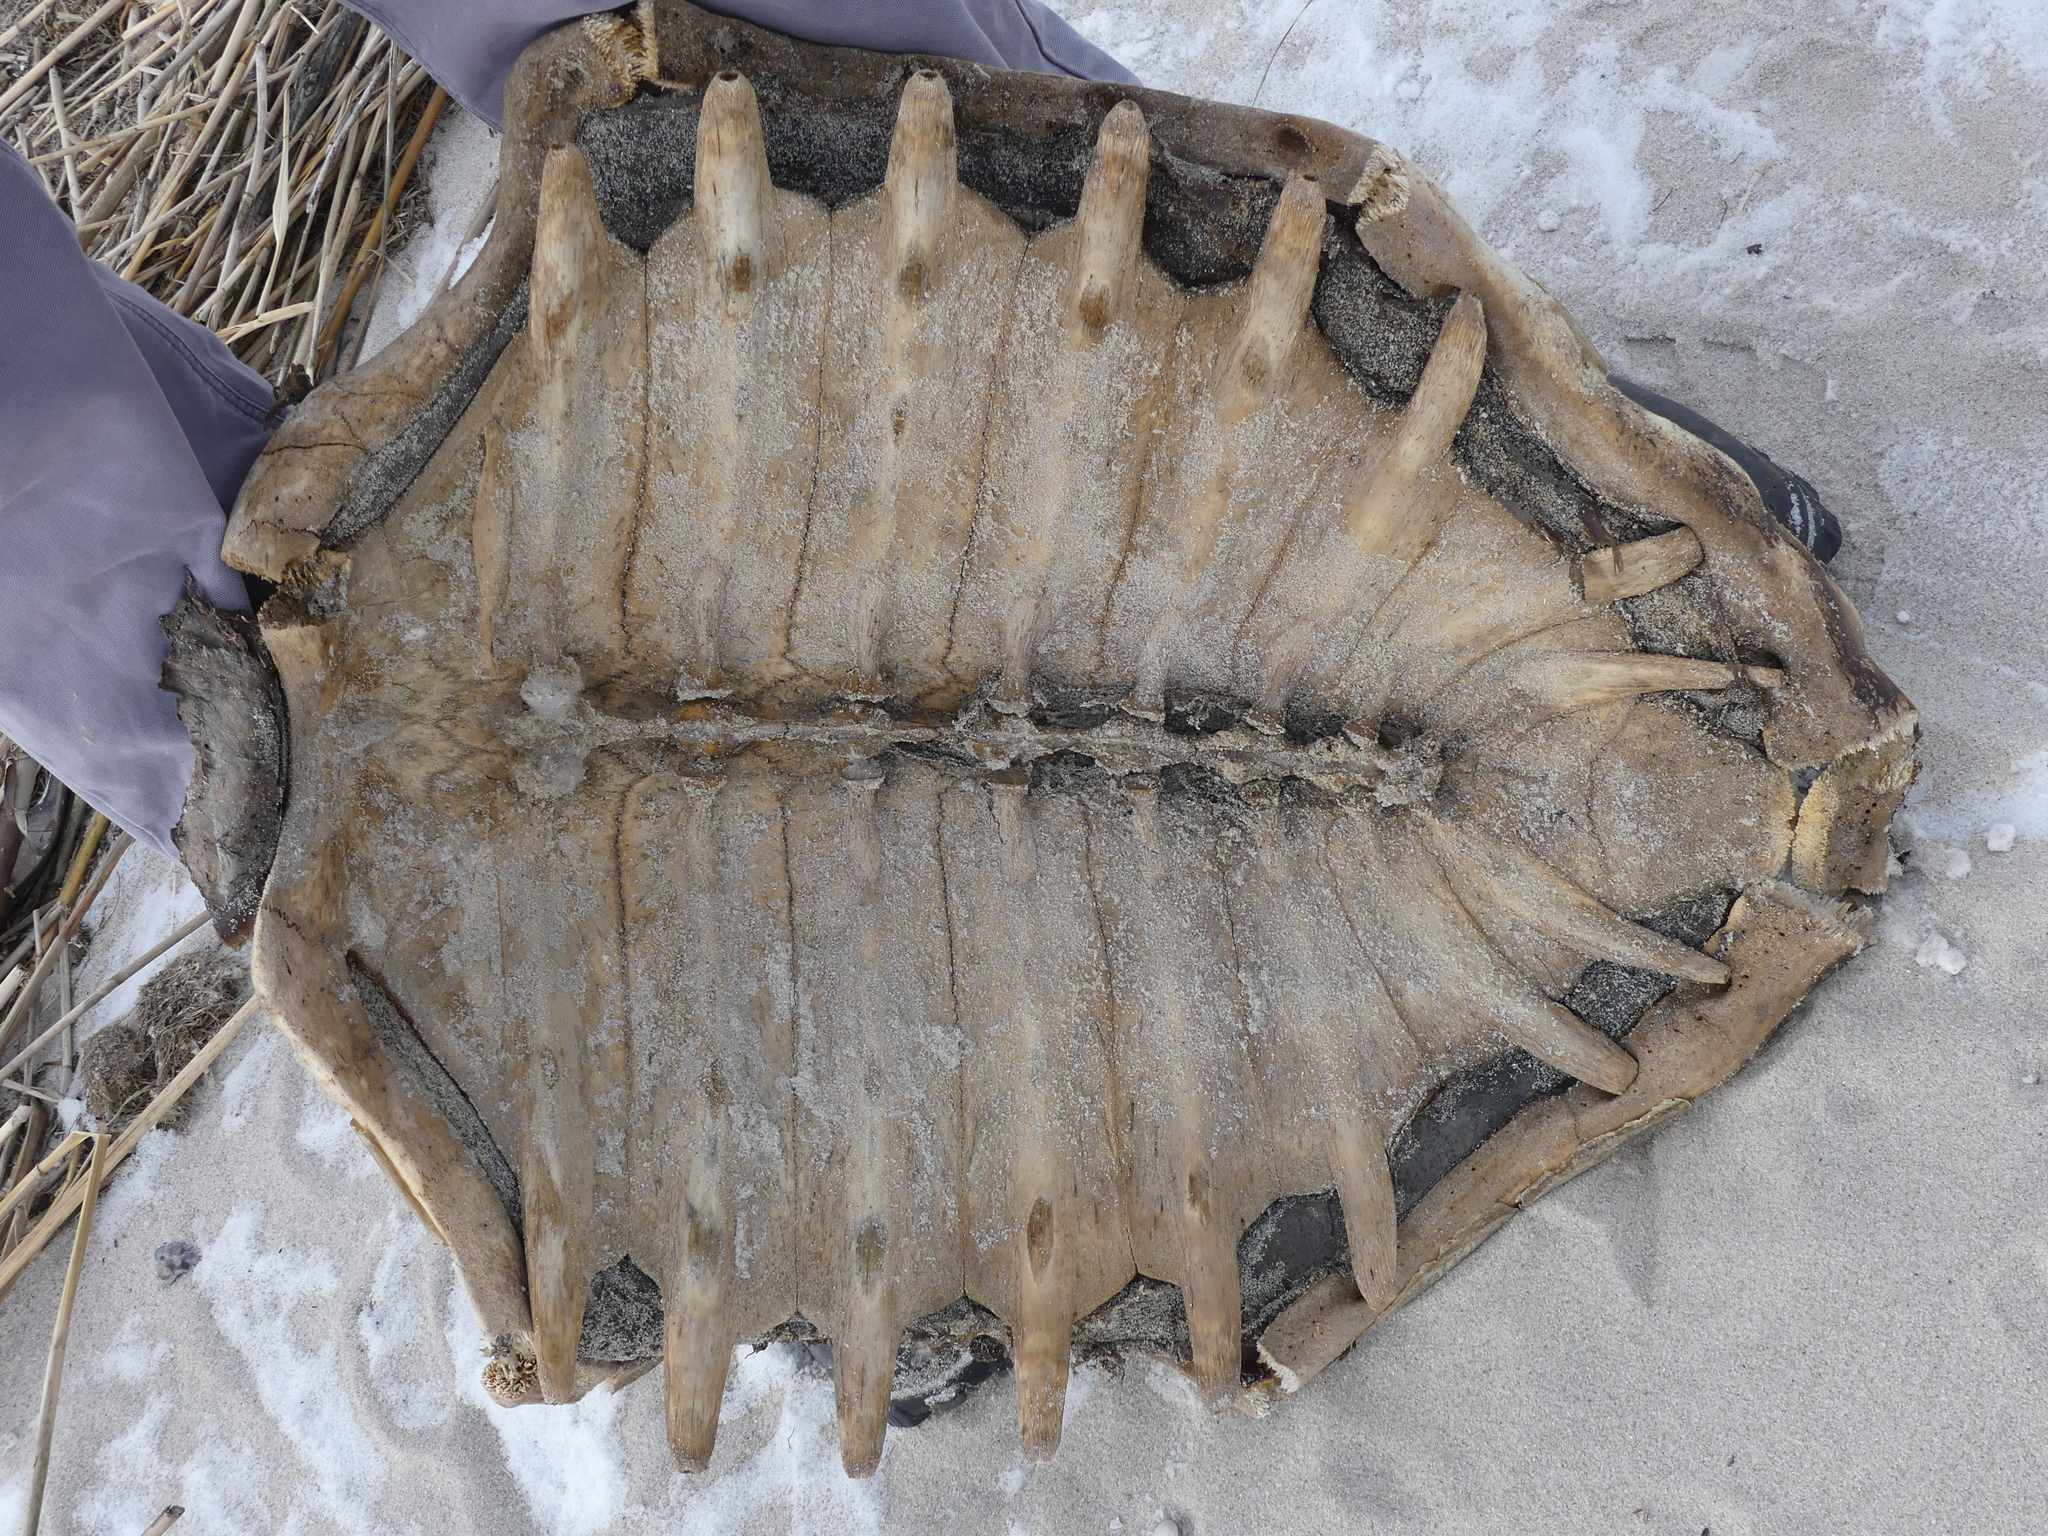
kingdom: Animalia
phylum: Chordata
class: Testudines
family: Cheloniidae
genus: Caretta
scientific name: Caretta caretta
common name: Loggerhead sea turtle
